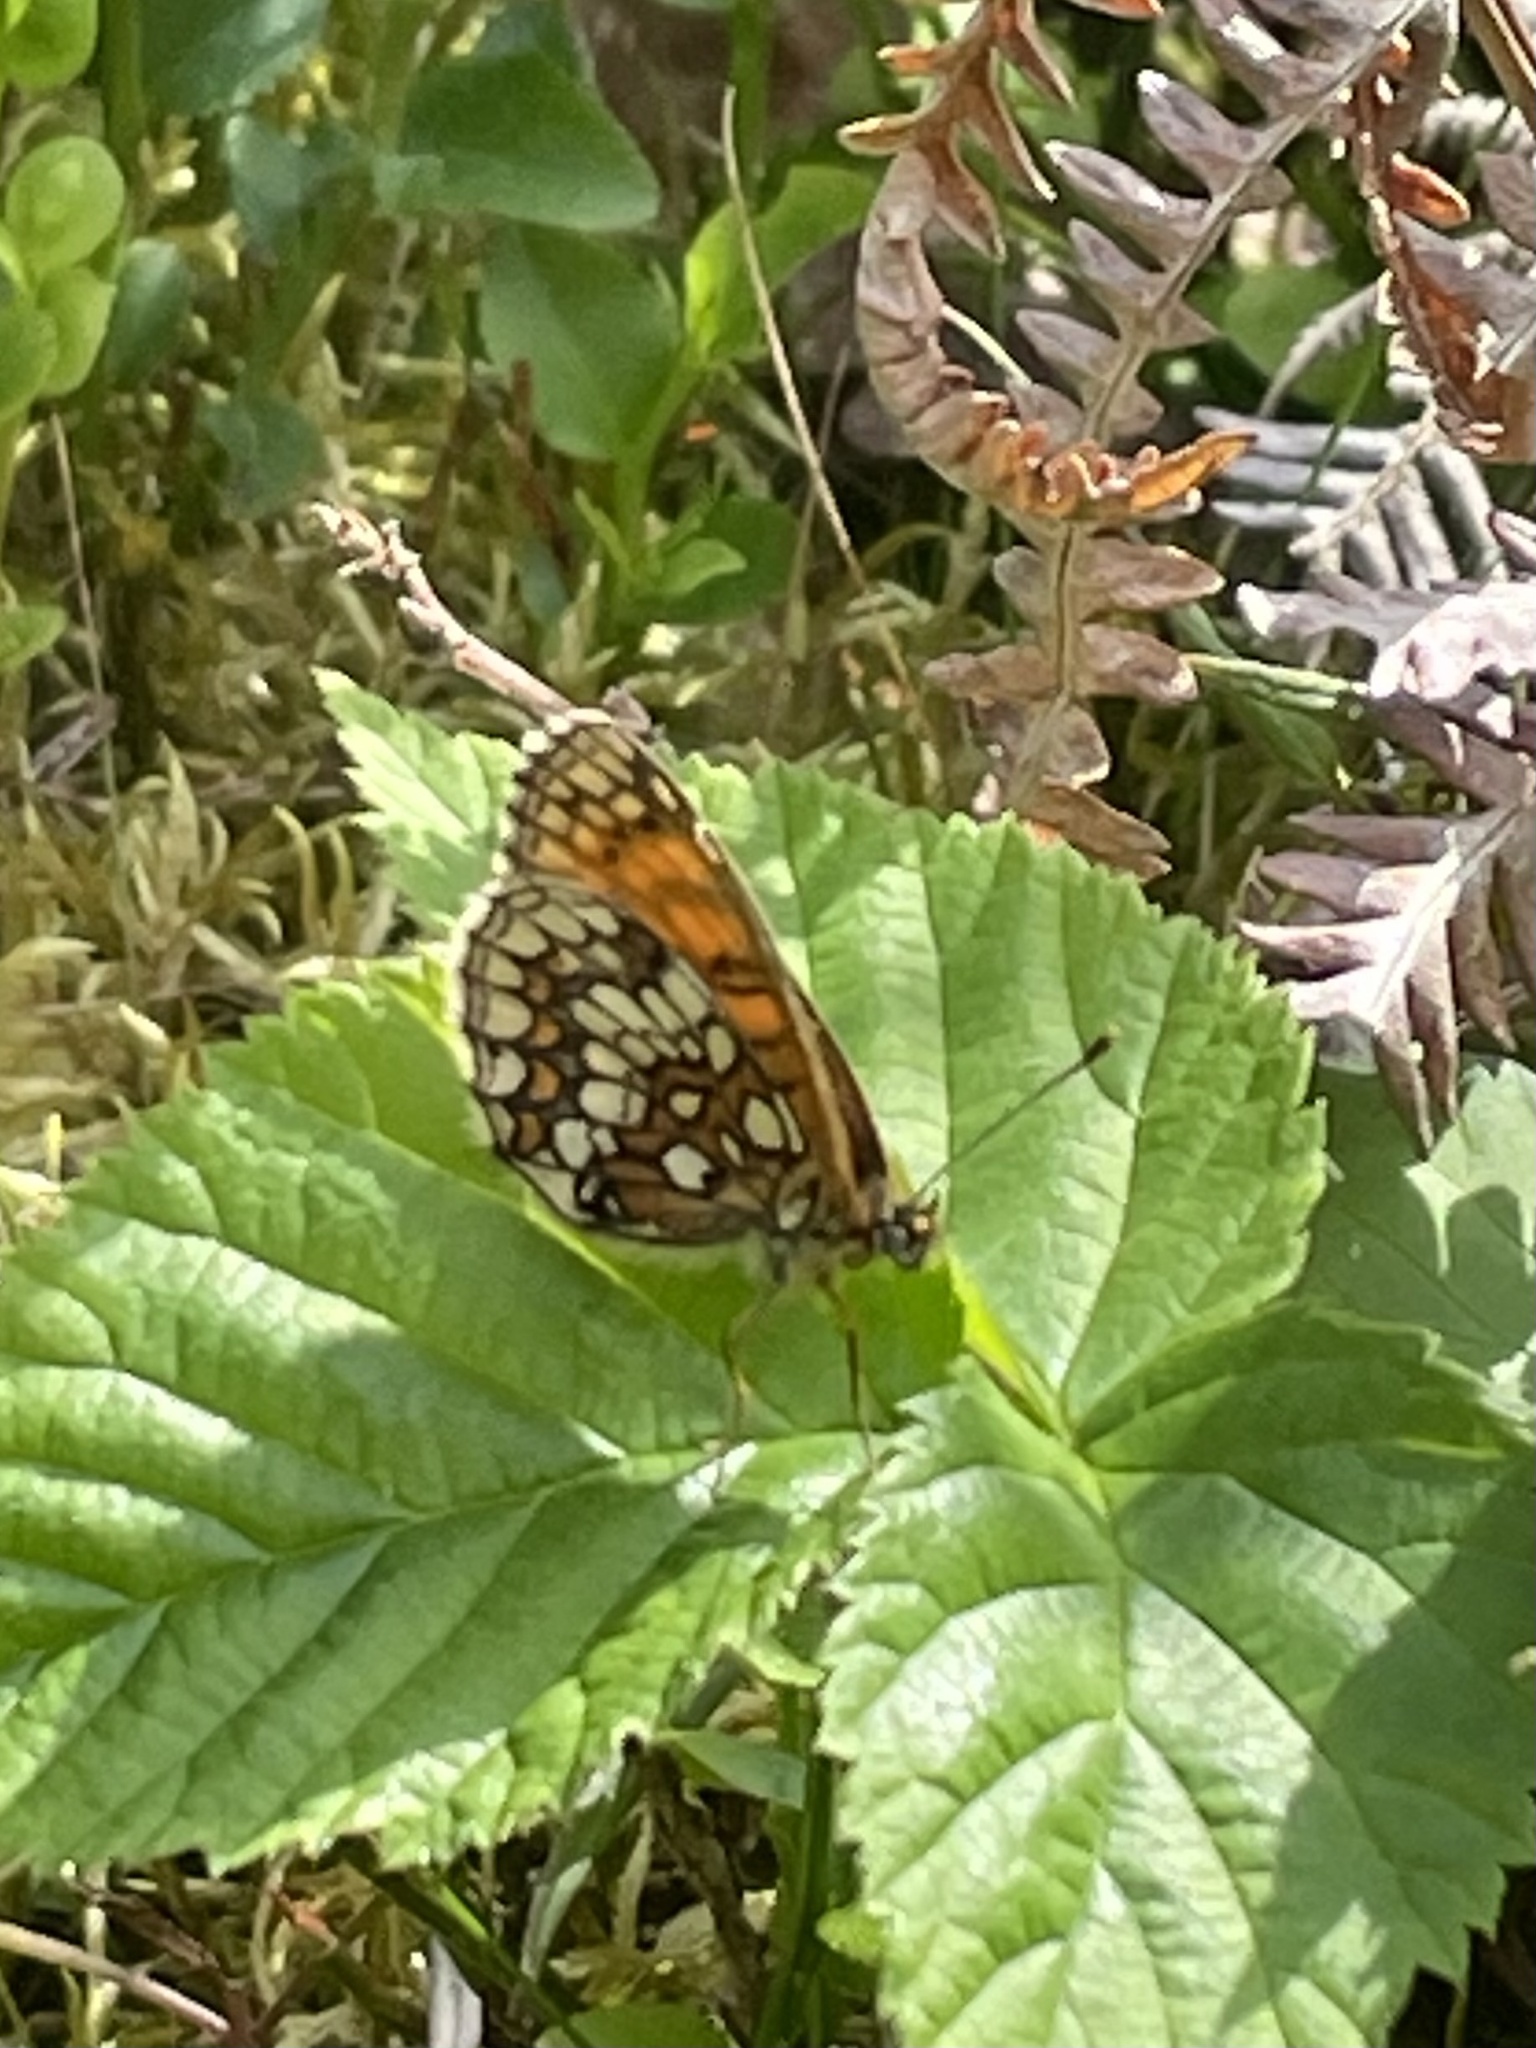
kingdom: Animalia
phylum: Arthropoda
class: Insecta
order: Lepidoptera
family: Nymphalidae
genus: Melitaea
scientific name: Melitaea athalia
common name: Heath fritillary
